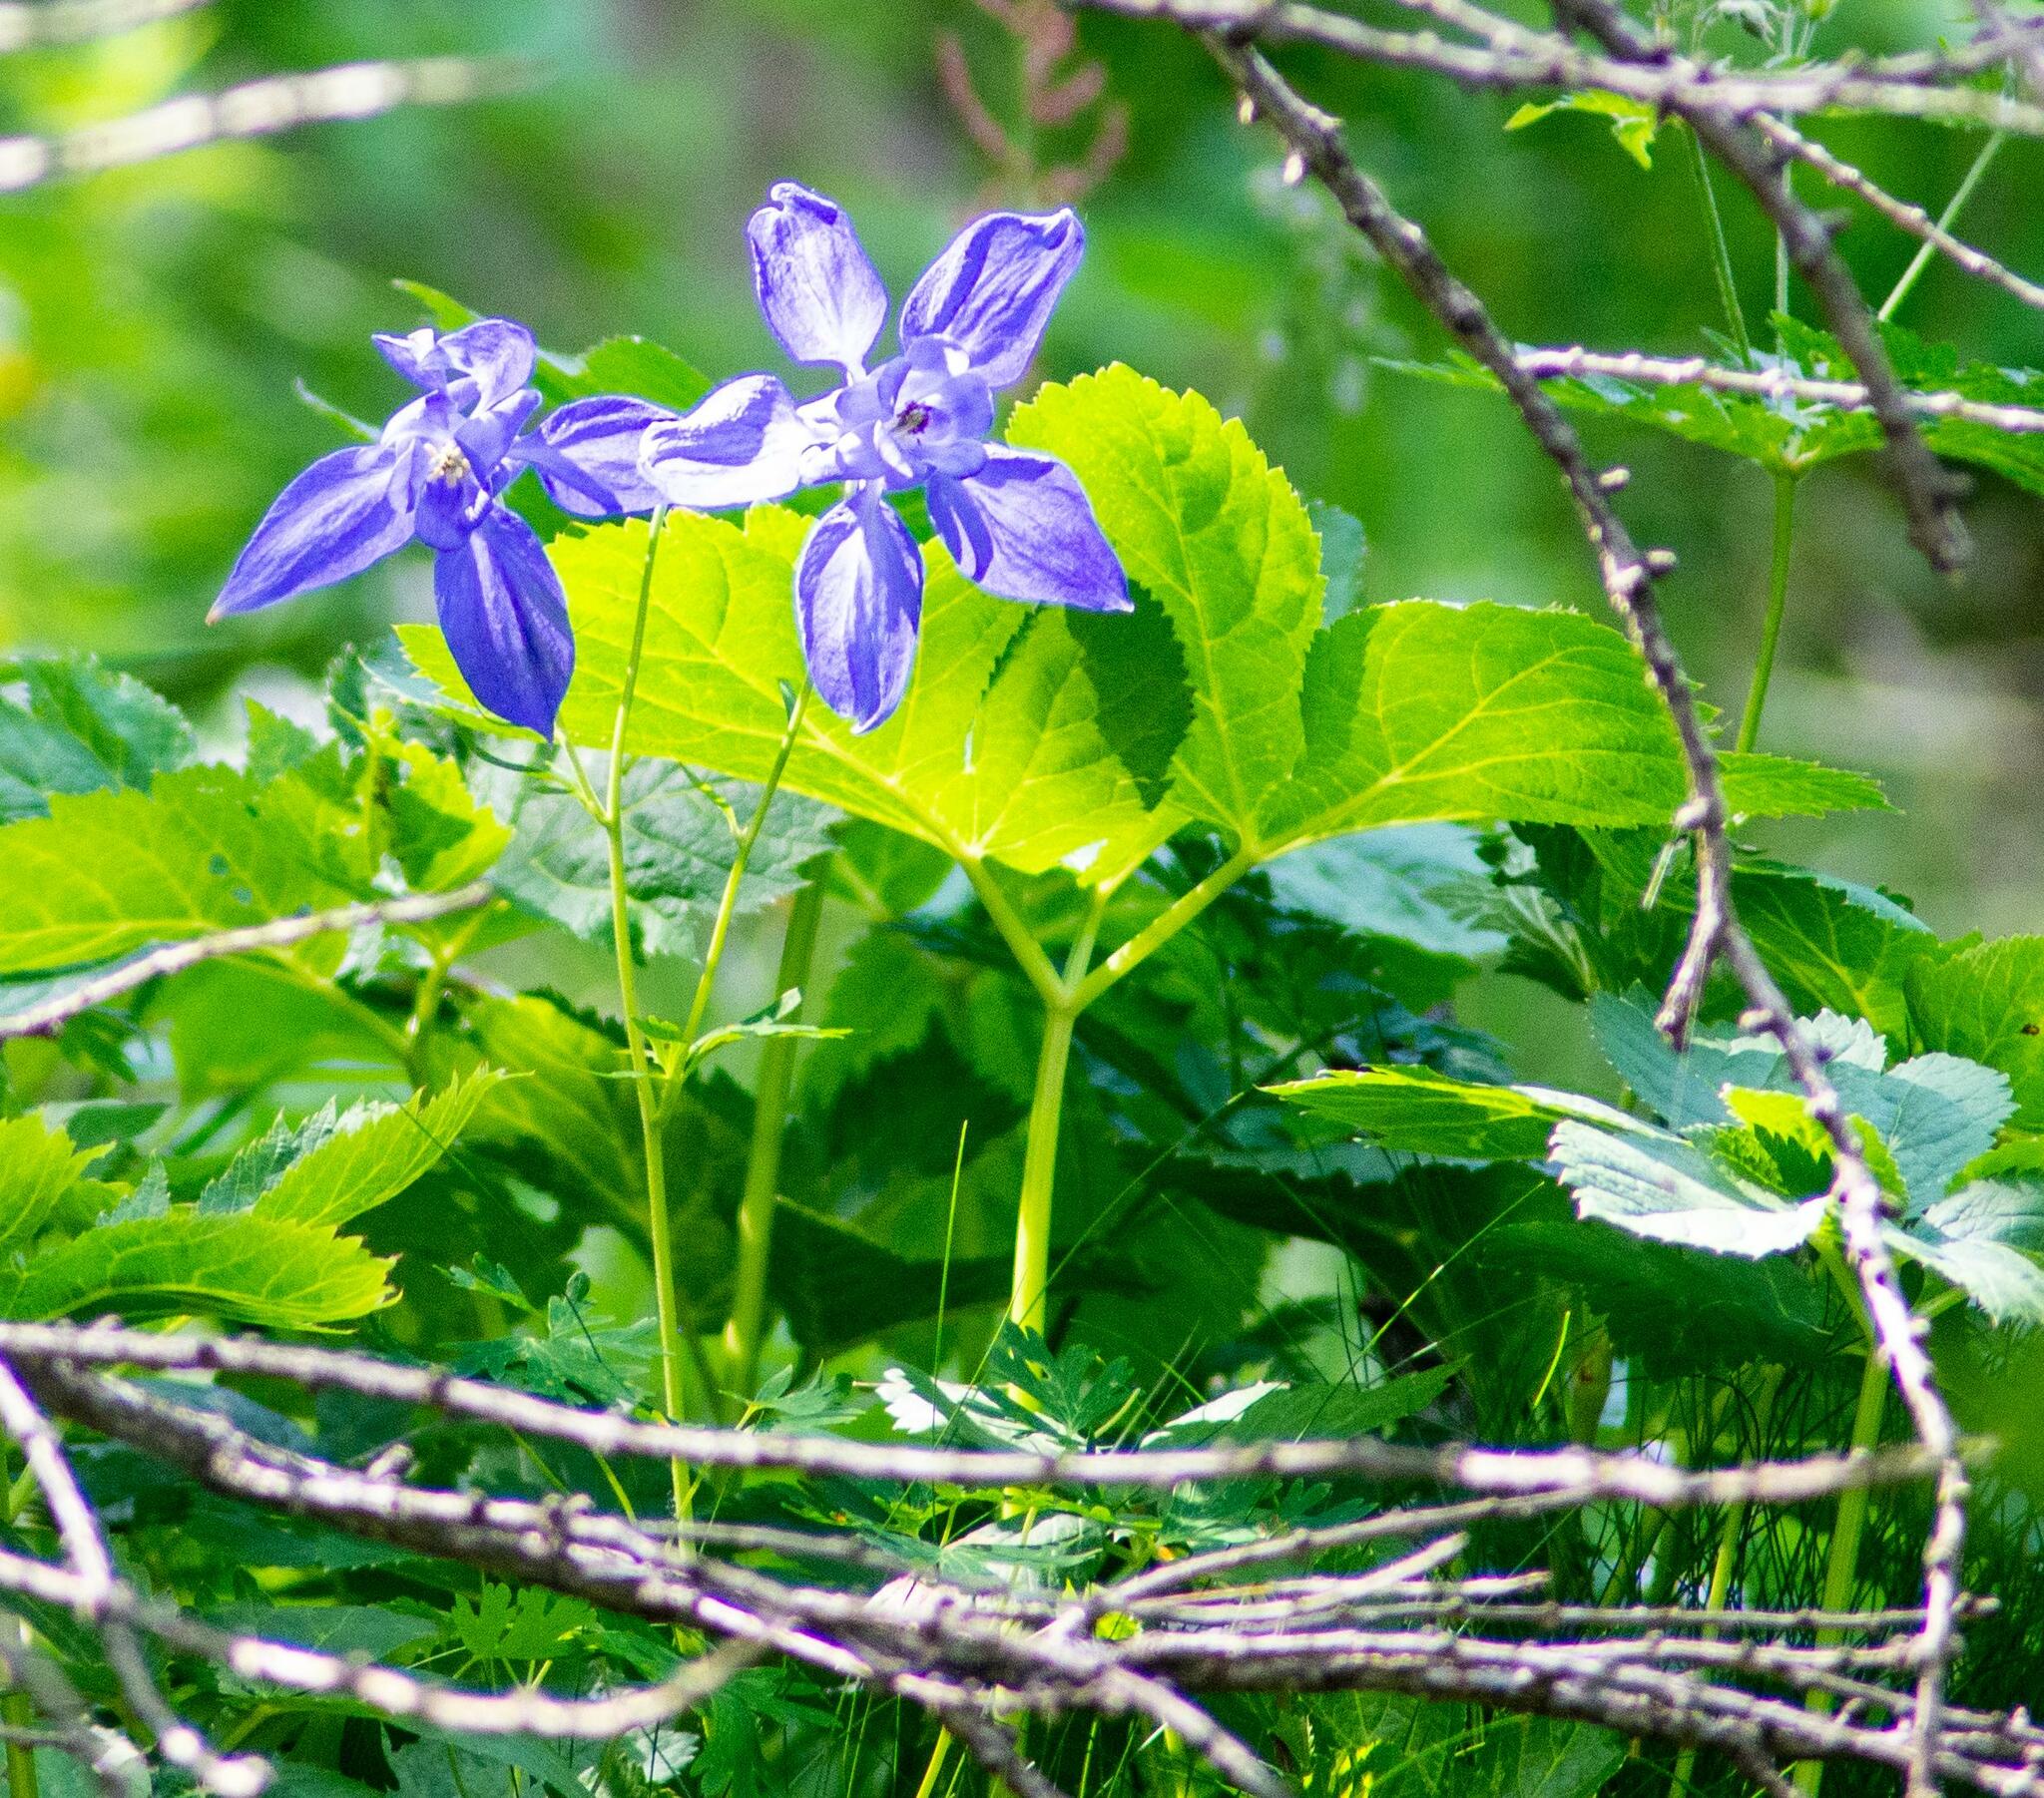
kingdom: Plantae
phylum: Tracheophyta
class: Magnoliopsida
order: Ranunculales
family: Ranunculaceae
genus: Aquilegia
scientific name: Aquilegia alpina
